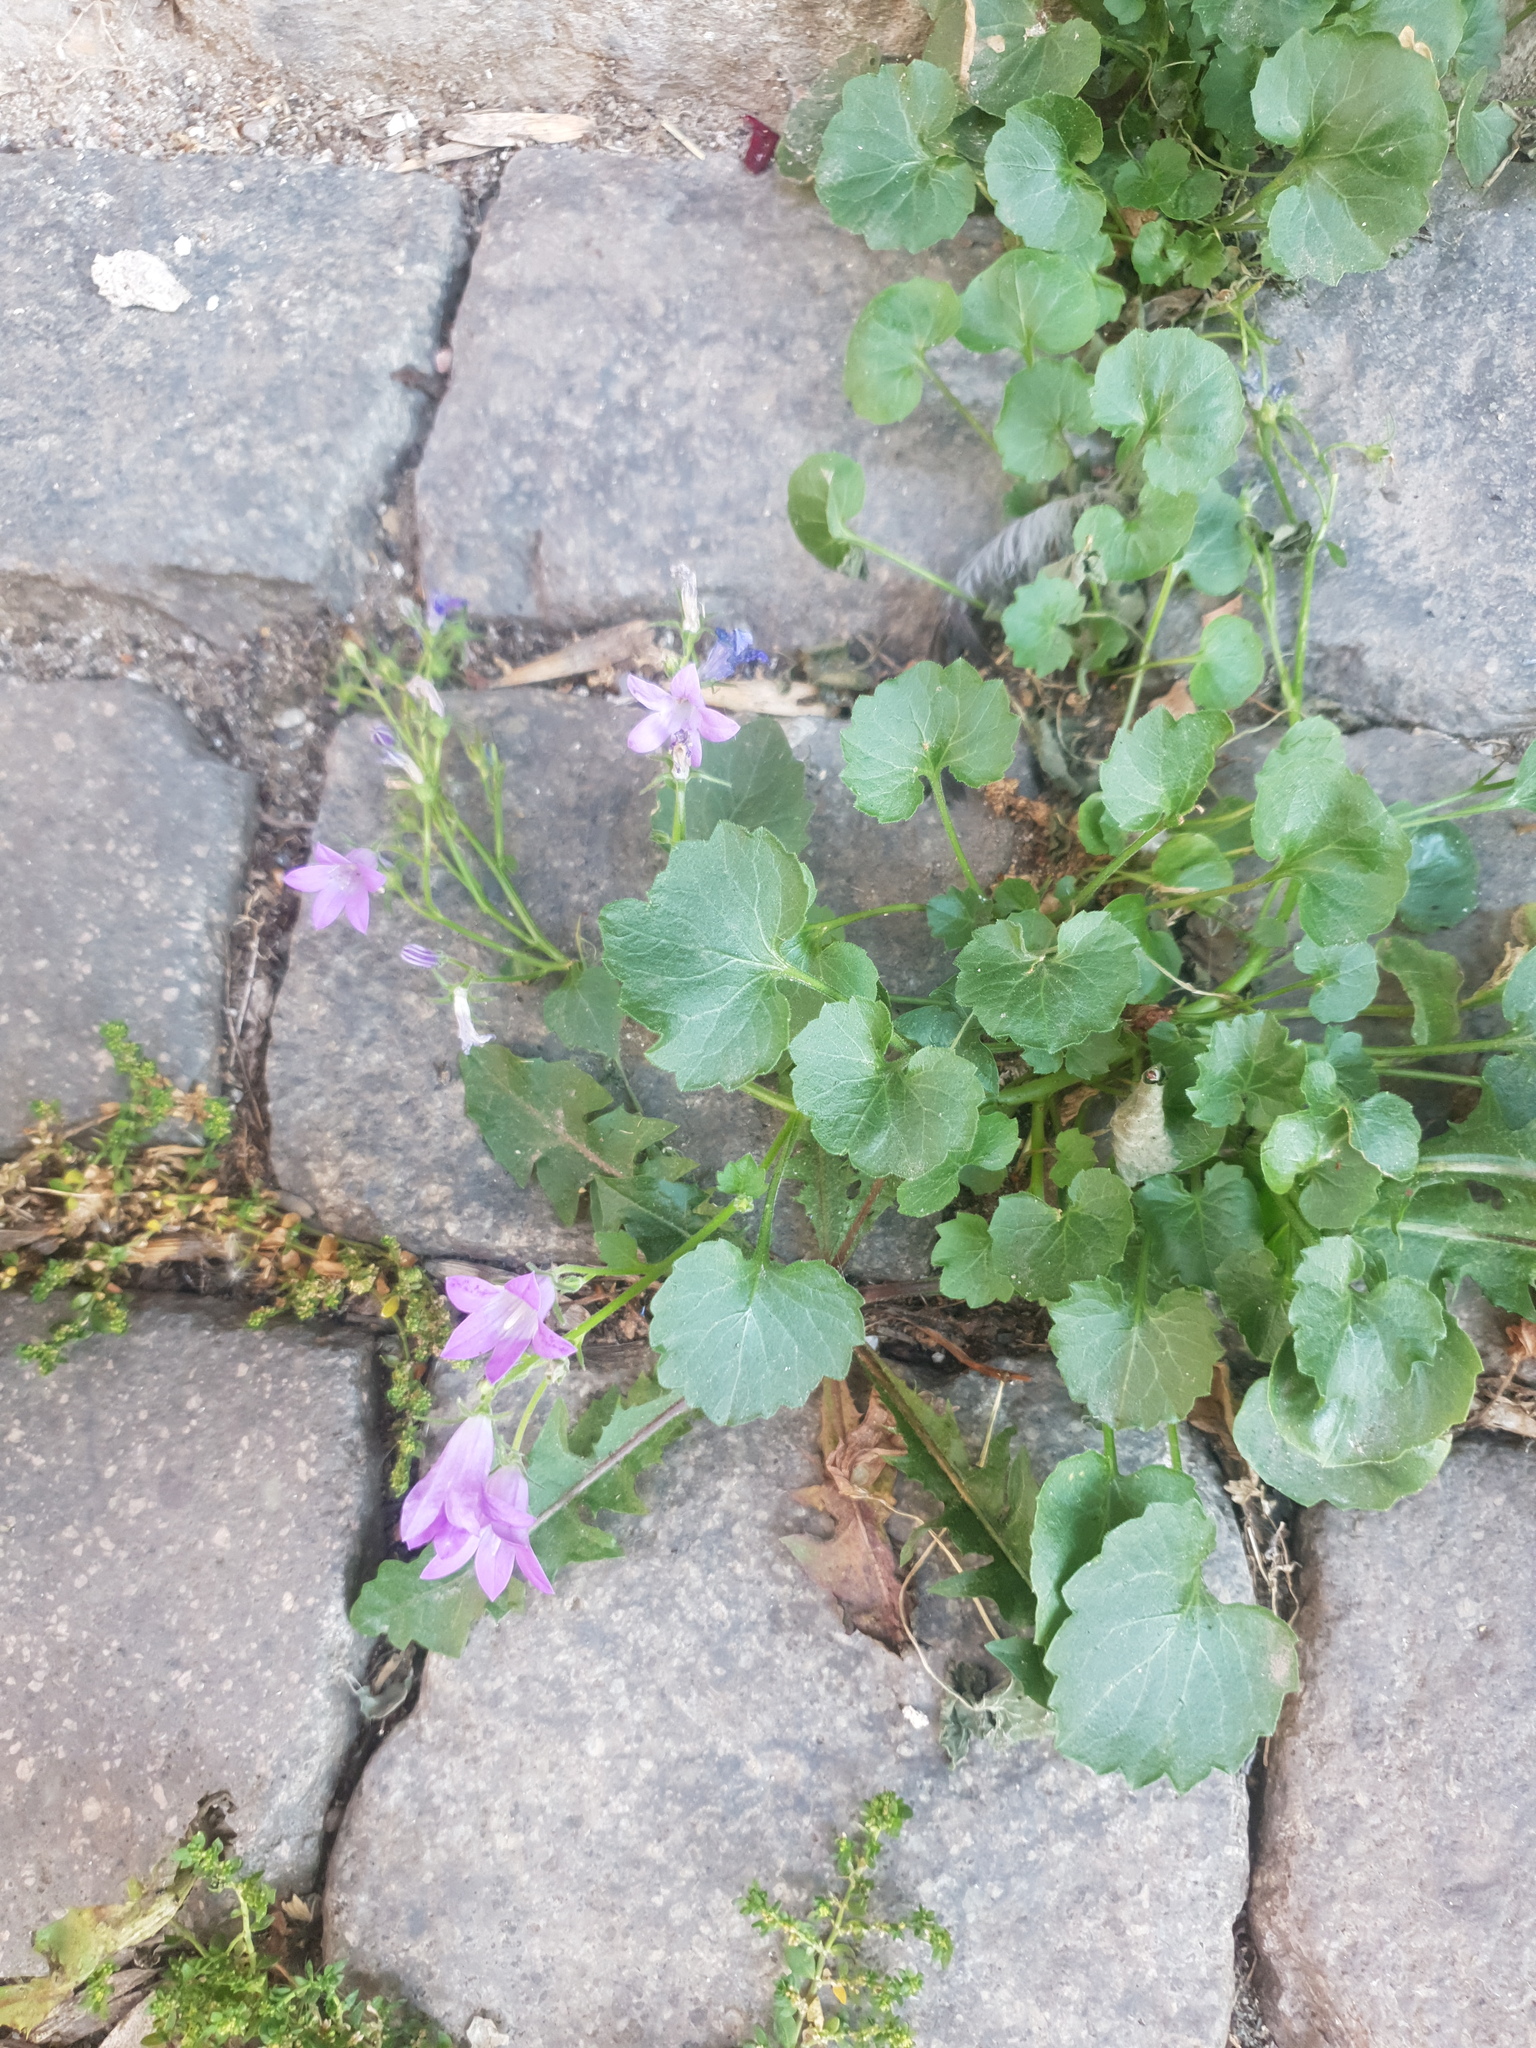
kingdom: Plantae
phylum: Tracheophyta
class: Magnoliopsida
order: Asterales
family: Campanulaceae
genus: Campanula
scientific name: Campanula poscharskyana
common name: Trailing bellflower
